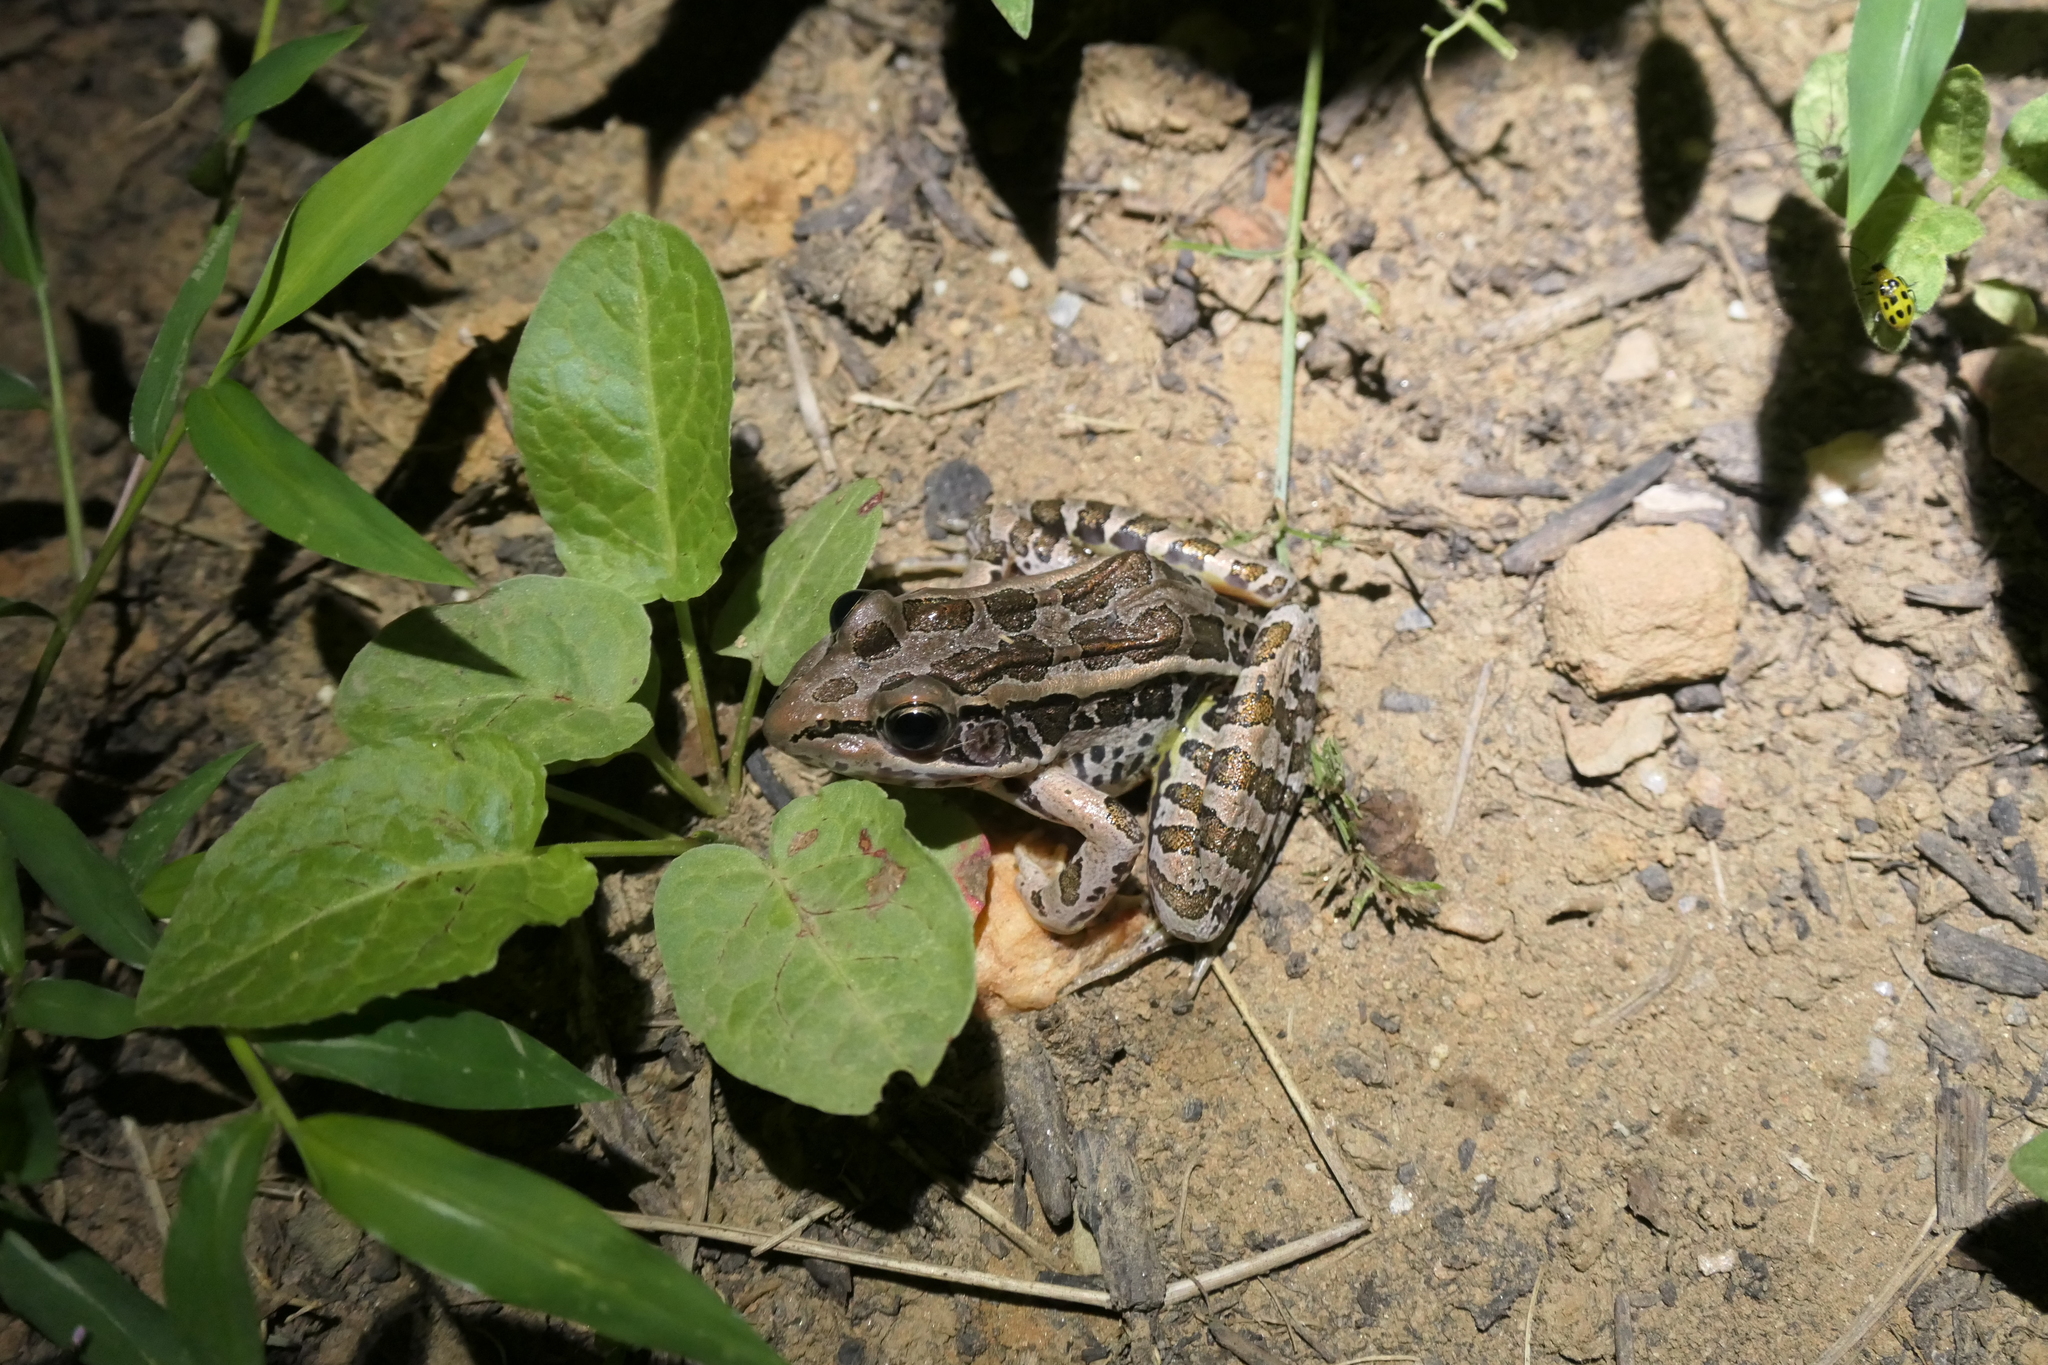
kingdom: Animalia
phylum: Chordata
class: Amphibia
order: Anura
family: Ranidae
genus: Lithobates
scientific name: Lithobates palustris
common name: Pickerel frog
